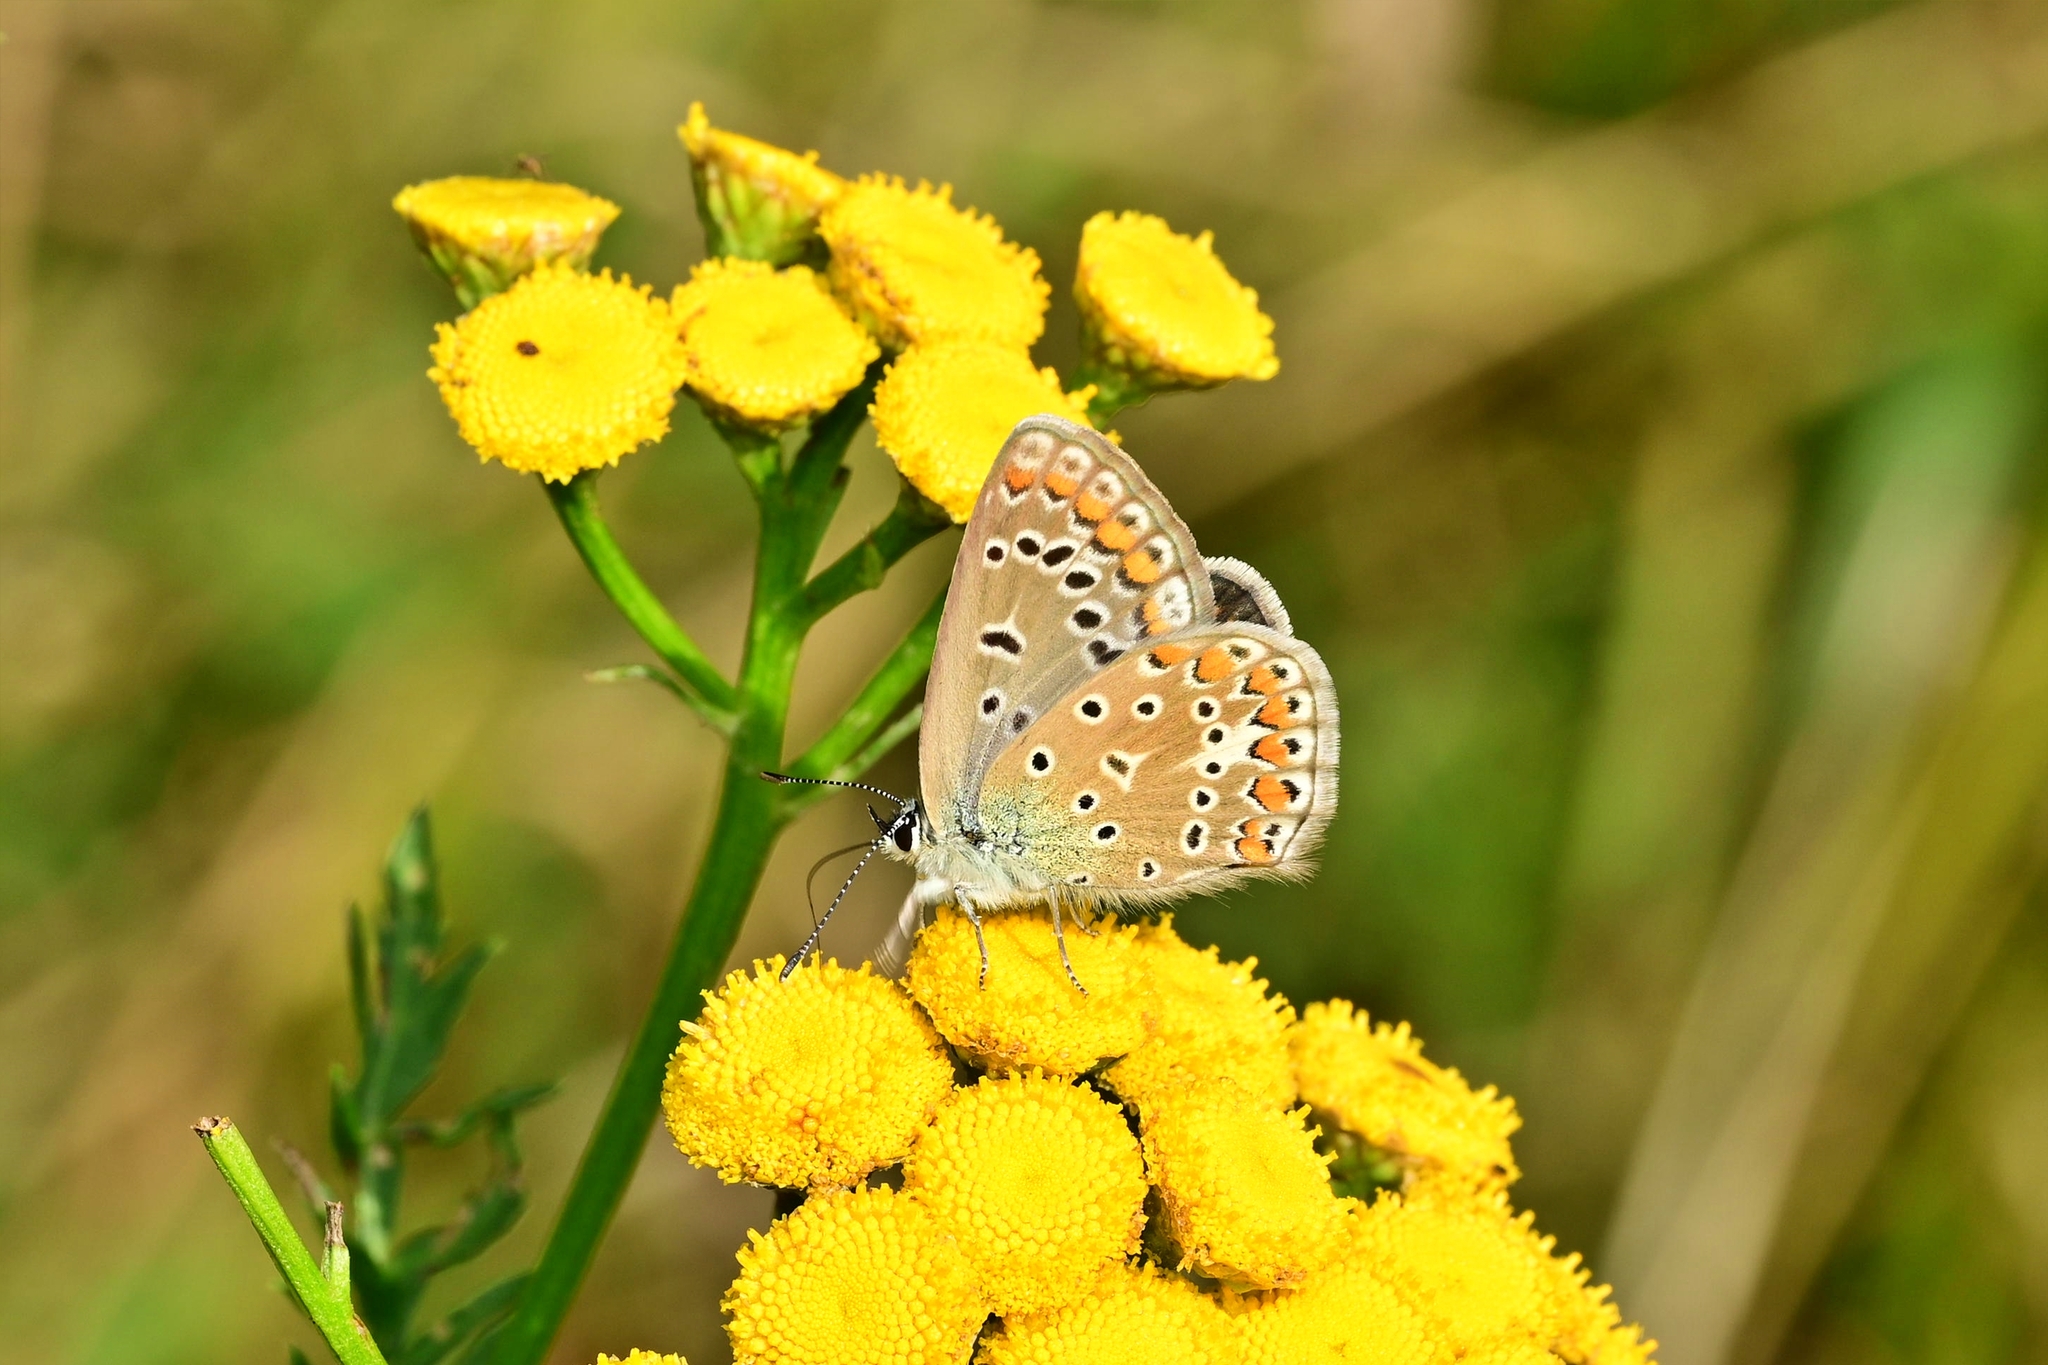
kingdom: Animalia
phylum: Arthropoda
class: Insecta
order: Lepidoptera
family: Lycaenidae
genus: Polyommatus
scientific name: Polyommatus icarus
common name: Common blue
